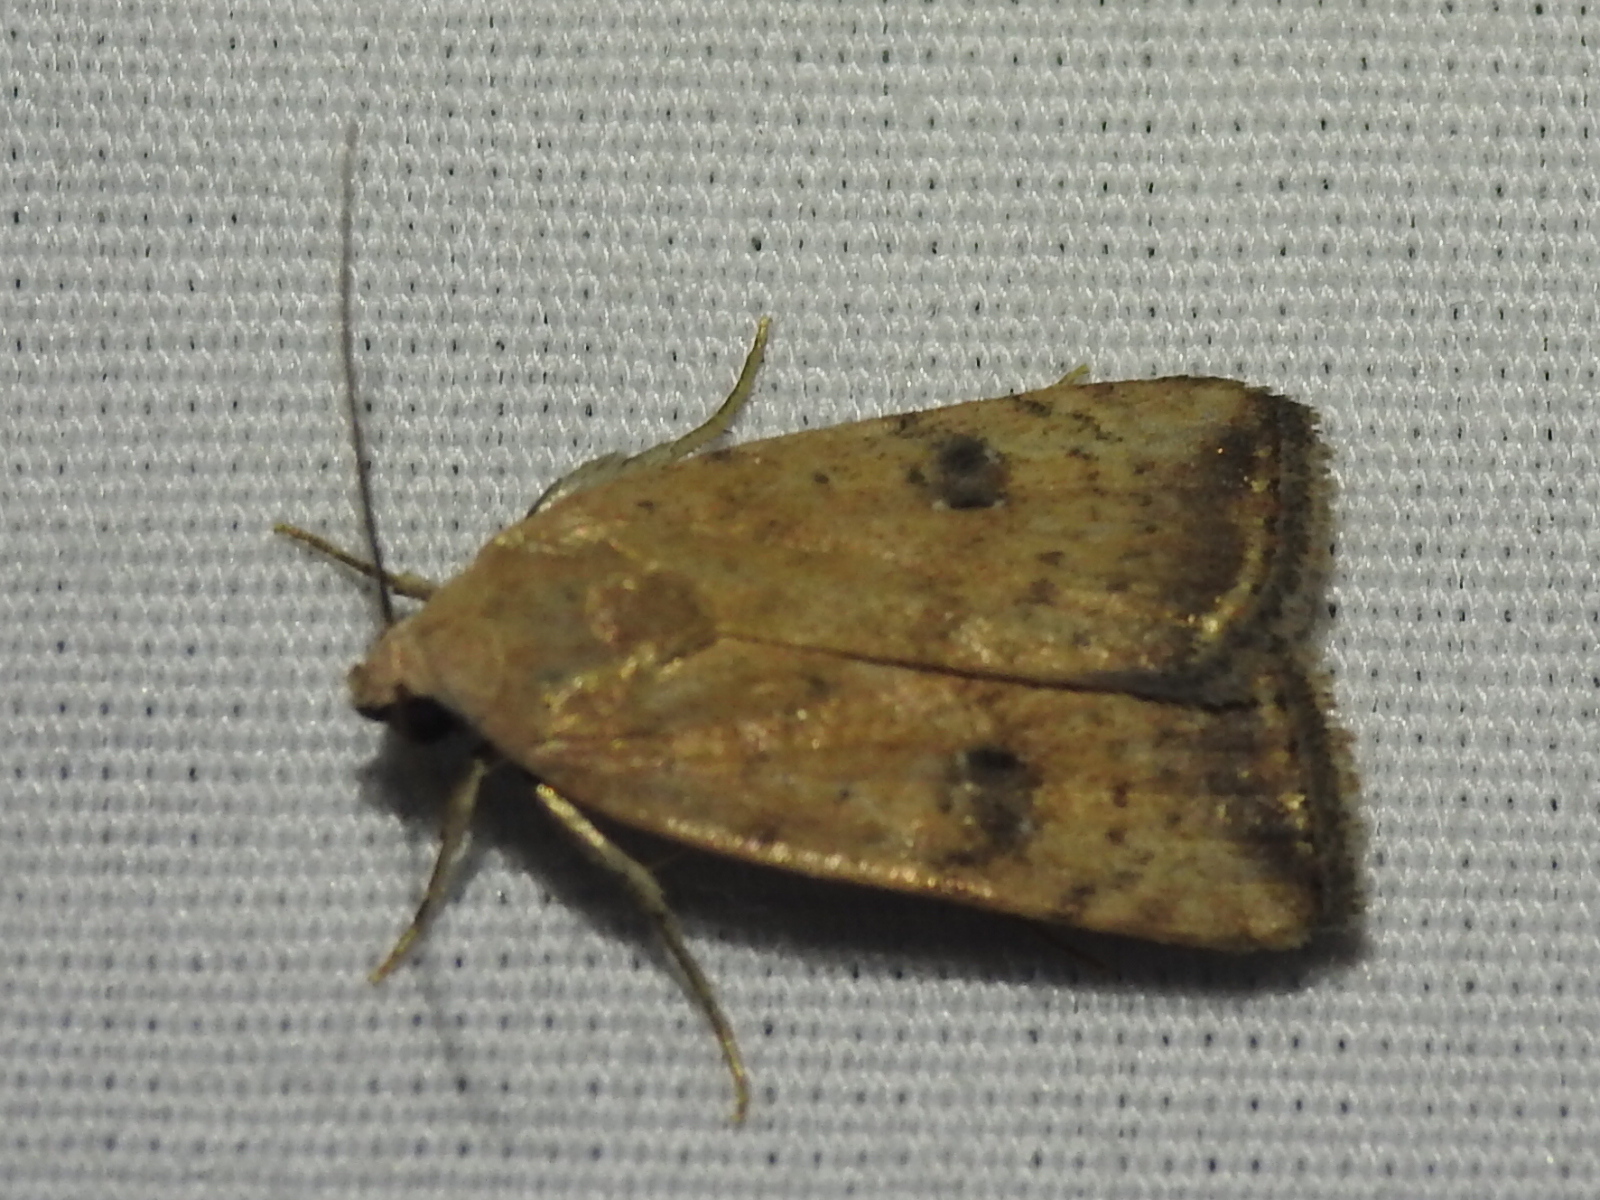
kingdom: Animalia
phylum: Arthropoda
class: Insecta
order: Lepidoptera
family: Noctuidae
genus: Micrathetis
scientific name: Micrathetis triplex
